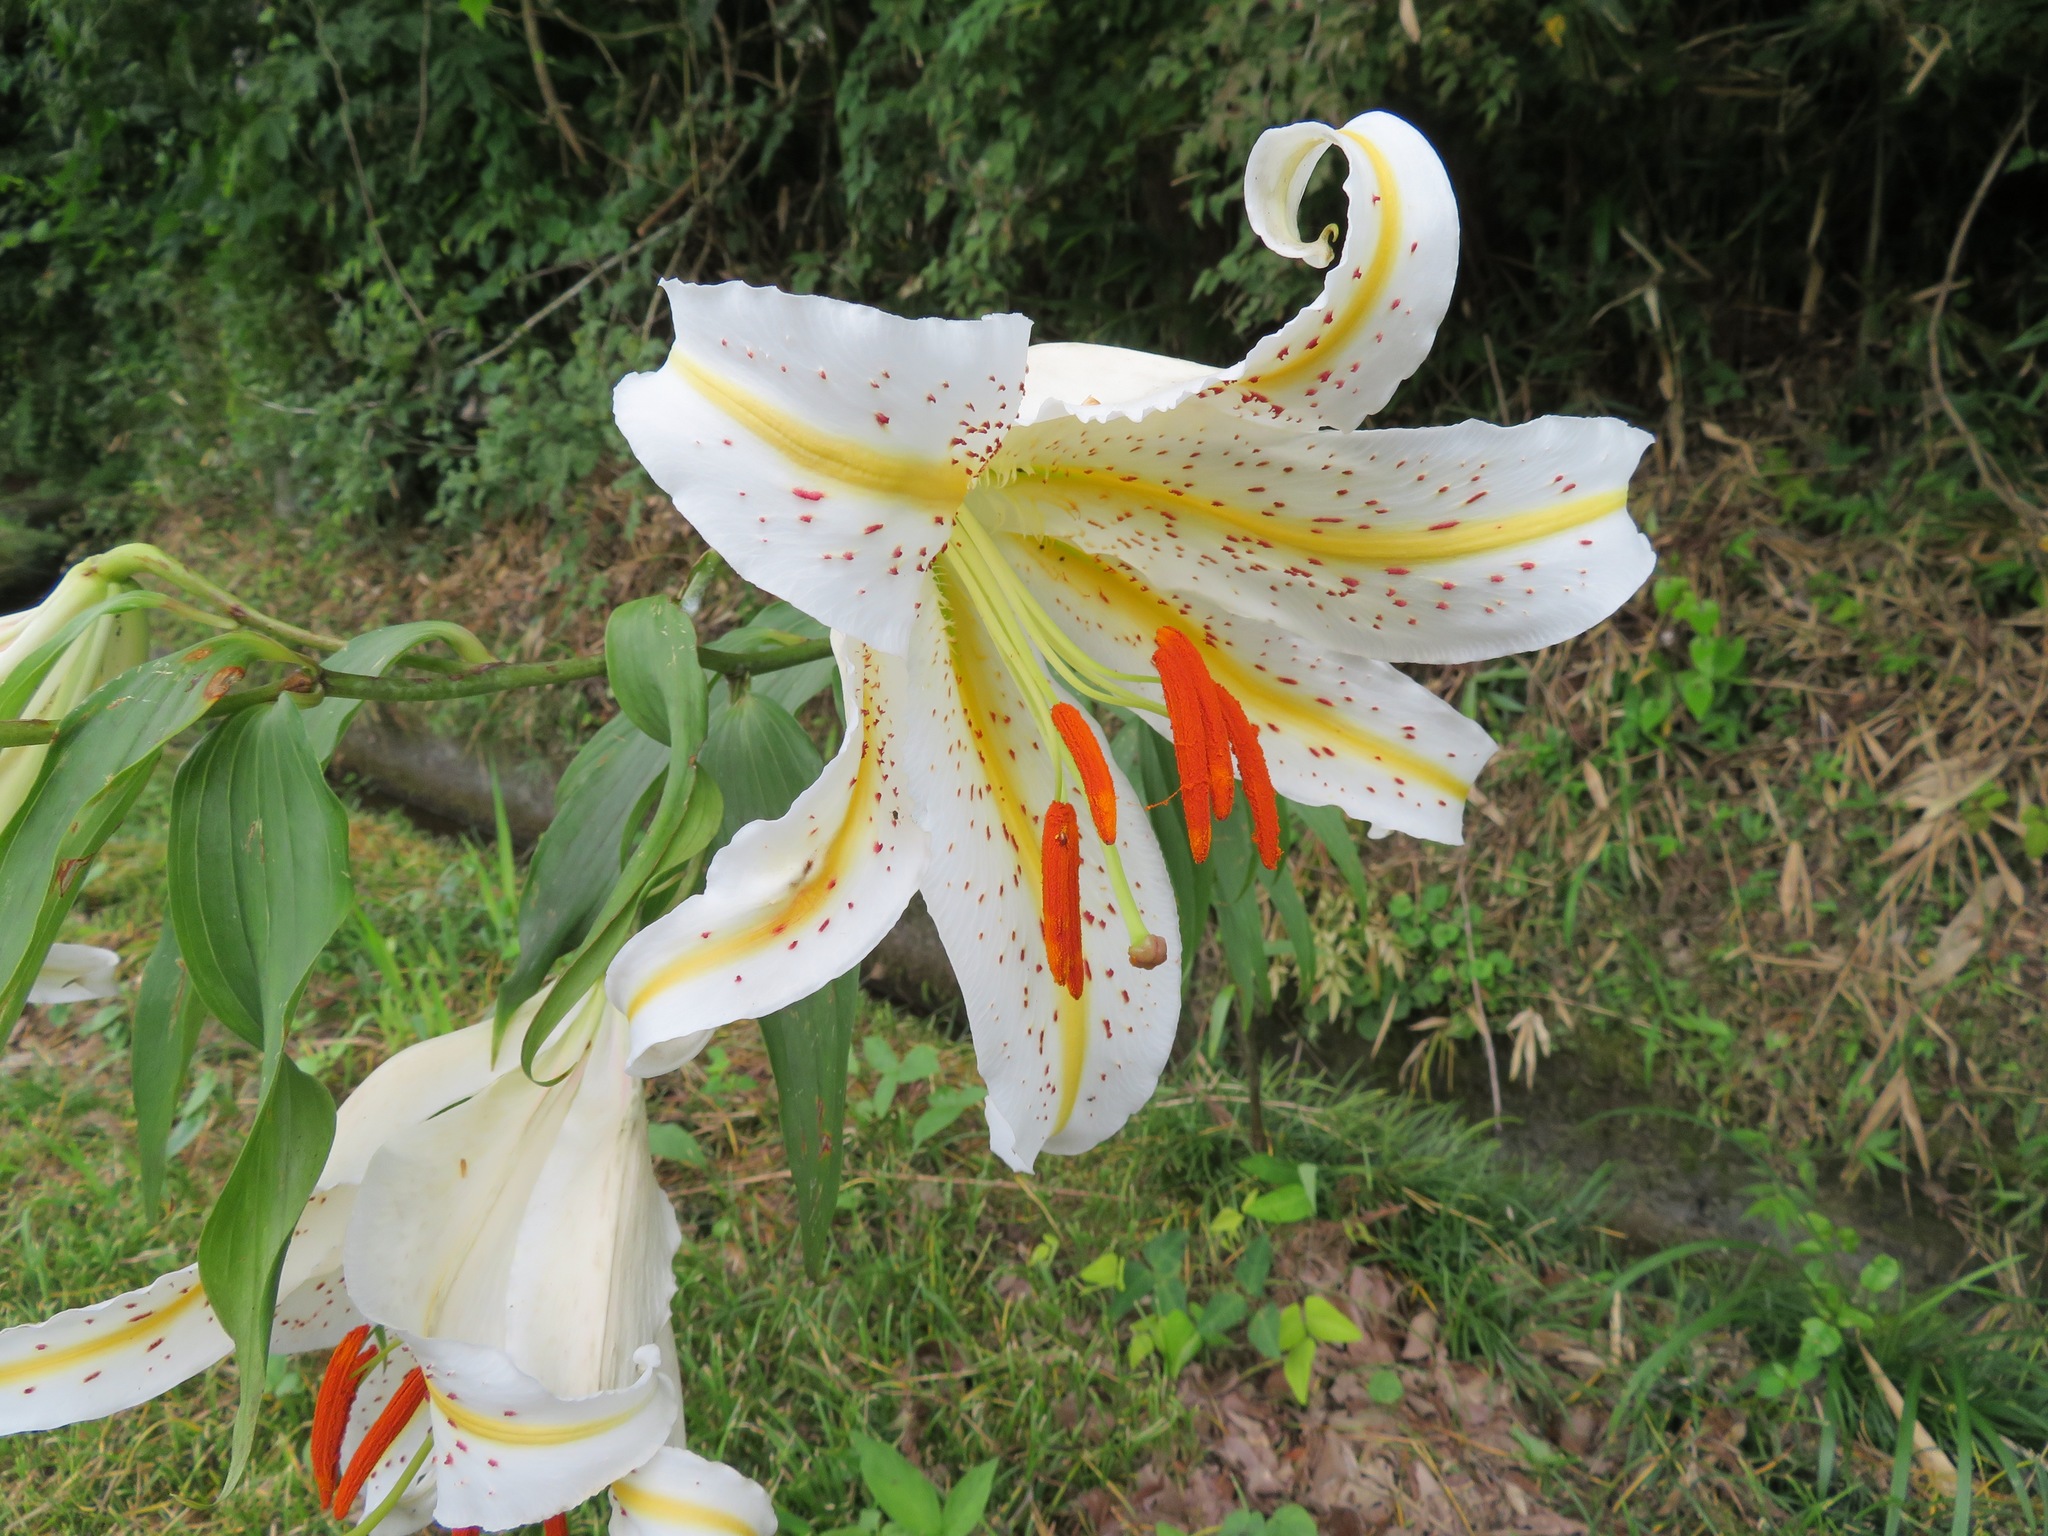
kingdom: Plantae
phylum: Tracheophyta
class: Liliopsida
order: Liliales
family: Liliaceae
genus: Lilium
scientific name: Lilium auratum
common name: Golden-ray lily
